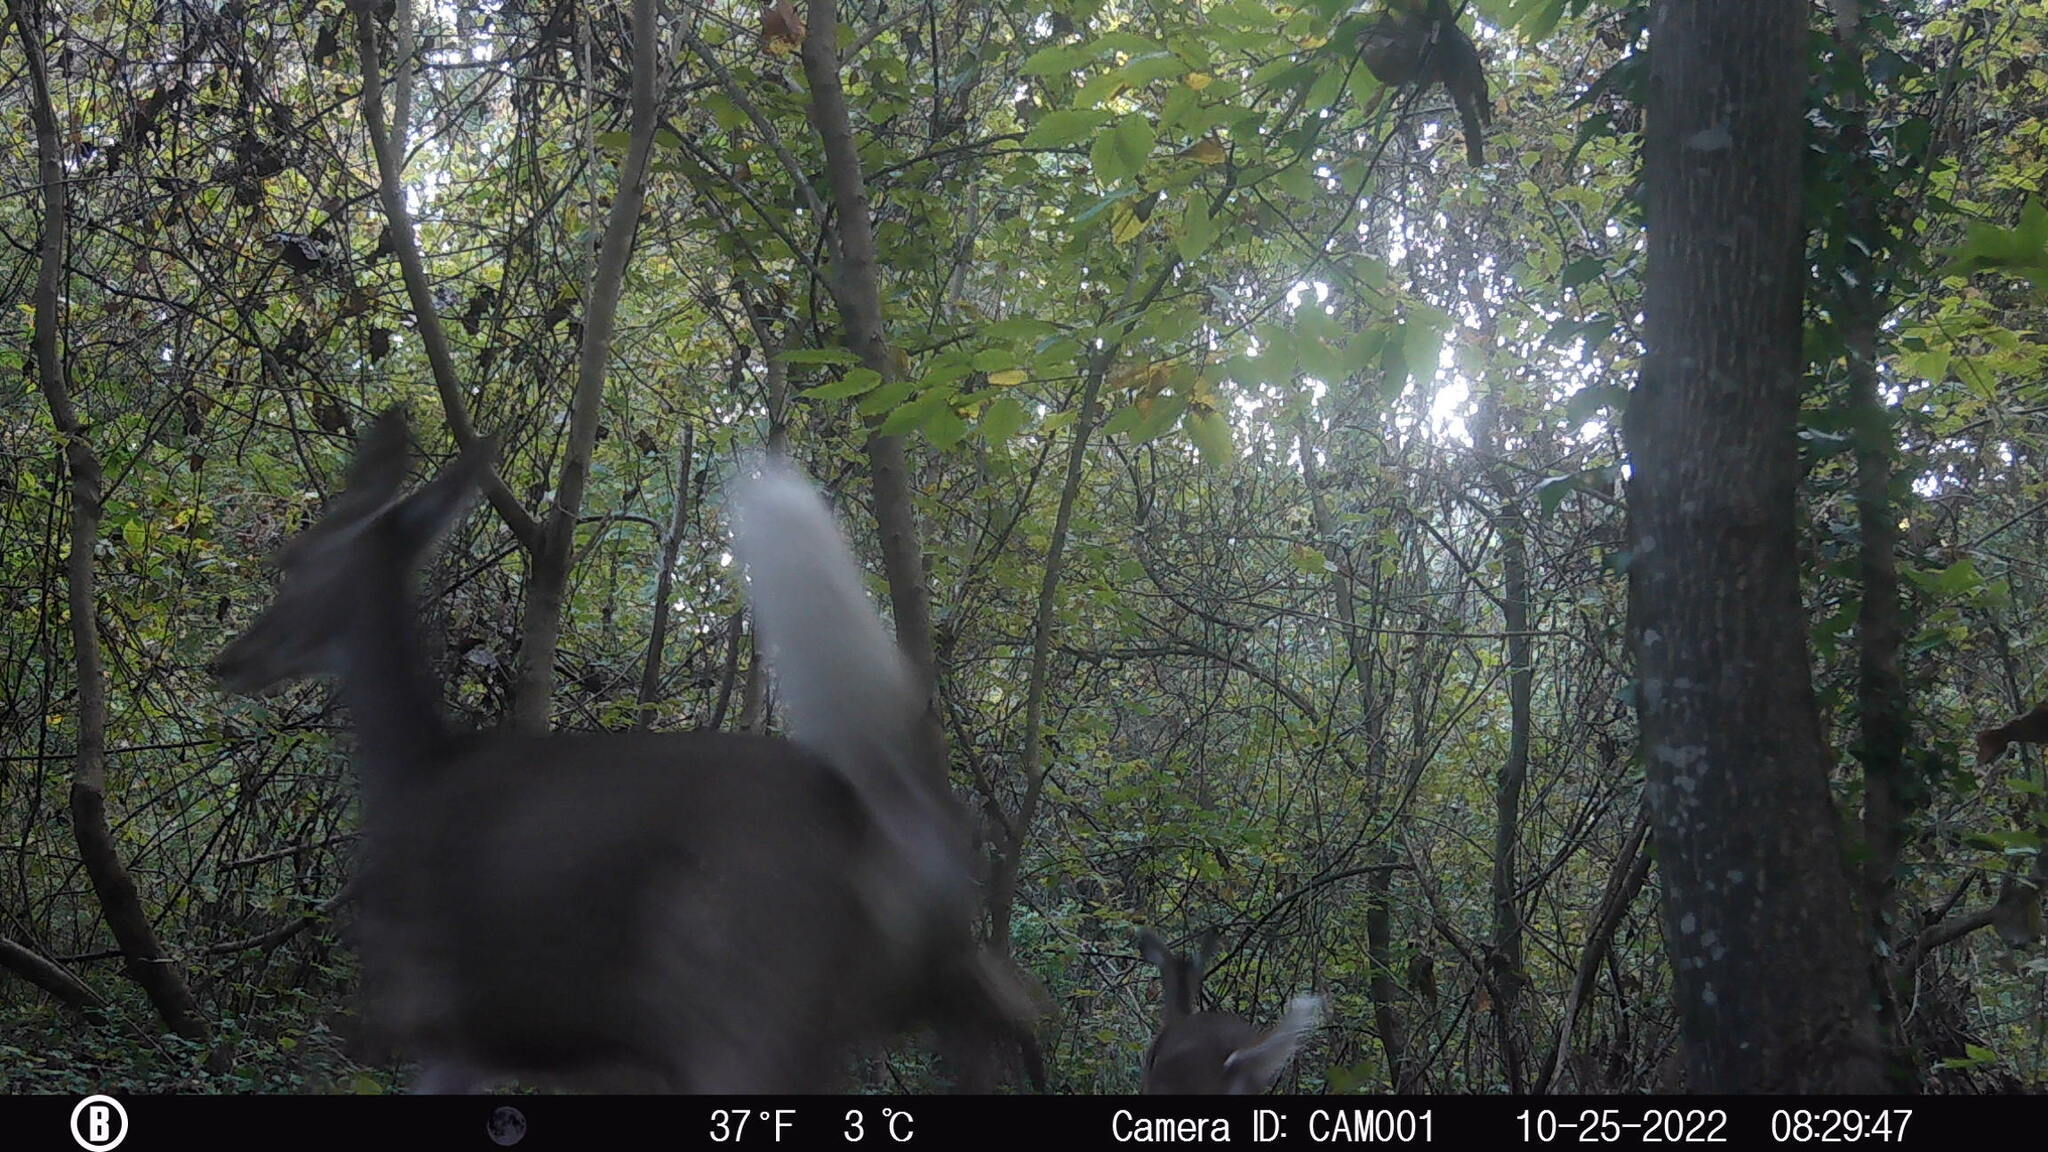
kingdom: Animalia
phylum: Chordata
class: Mammalia
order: Artiodactyla
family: Cervidae
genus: Odocoileus
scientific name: Odocoileus virginianus
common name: White-tailed deer
